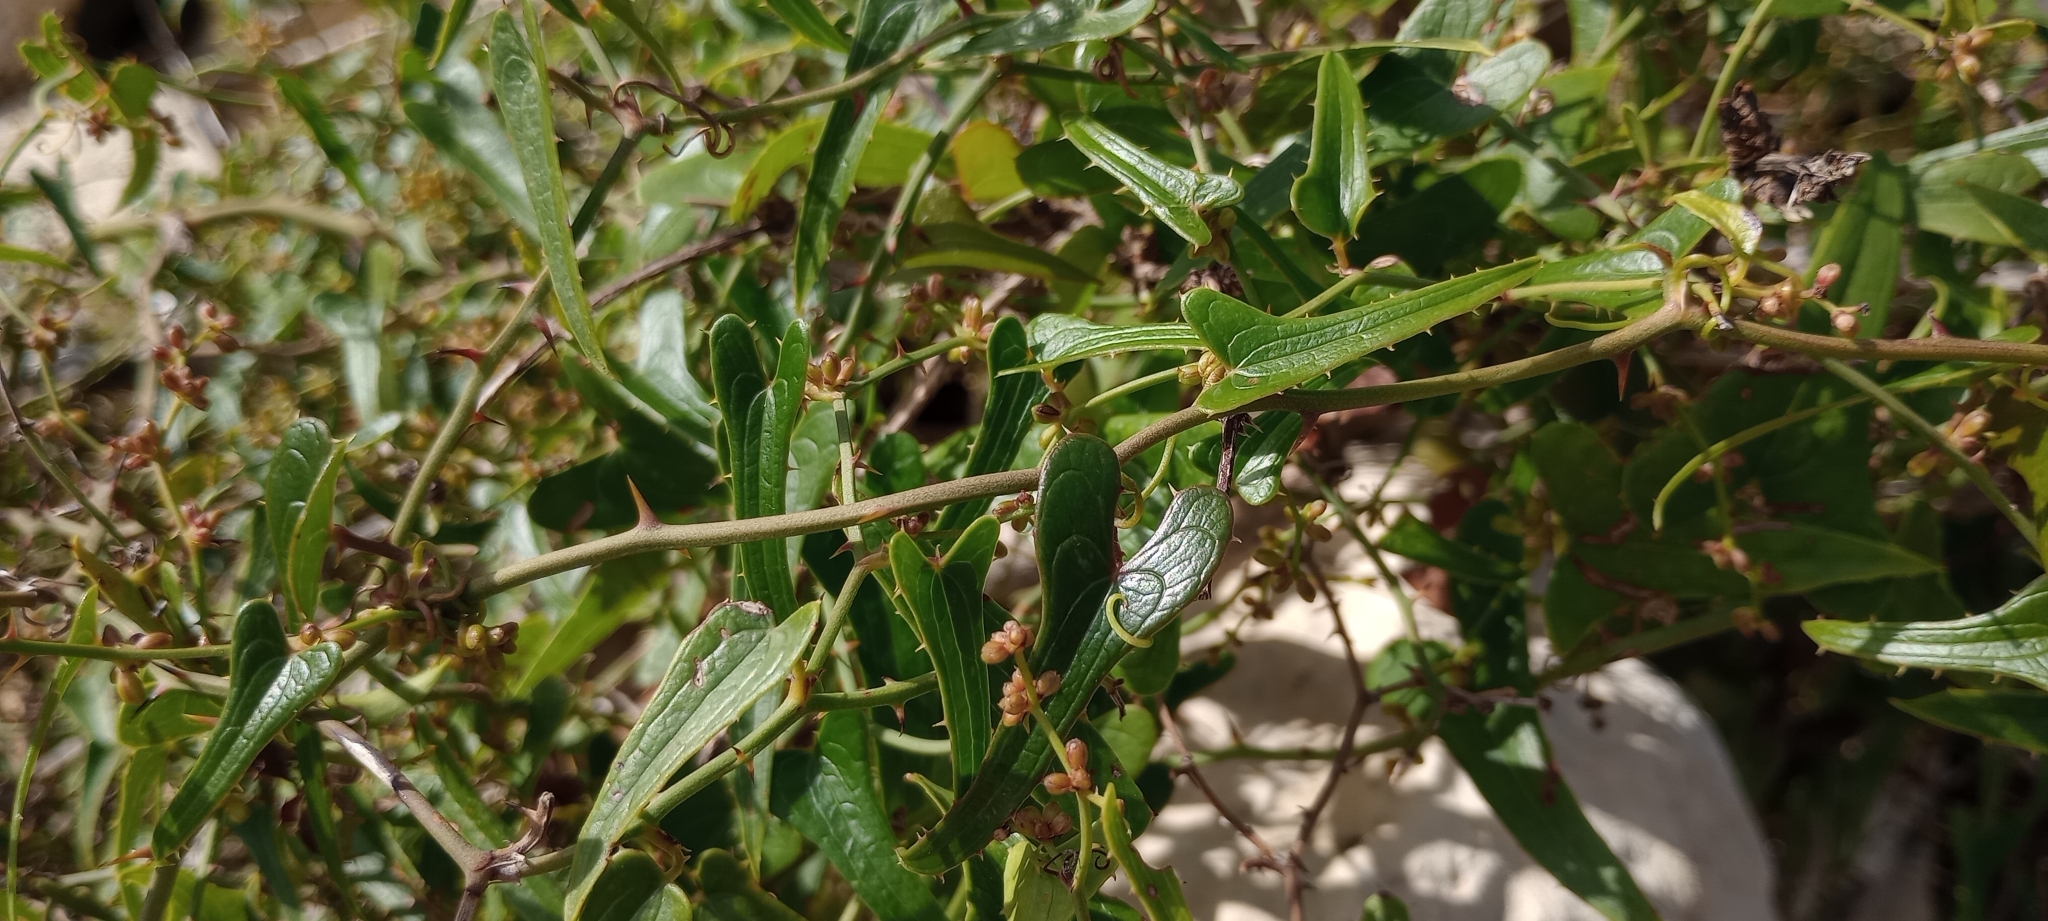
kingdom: Plantae
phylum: Tracheophyta
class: Liliopsida
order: Liliales
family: Smilacaceae
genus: Smilax
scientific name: Smilax aspera
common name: Common smilax
